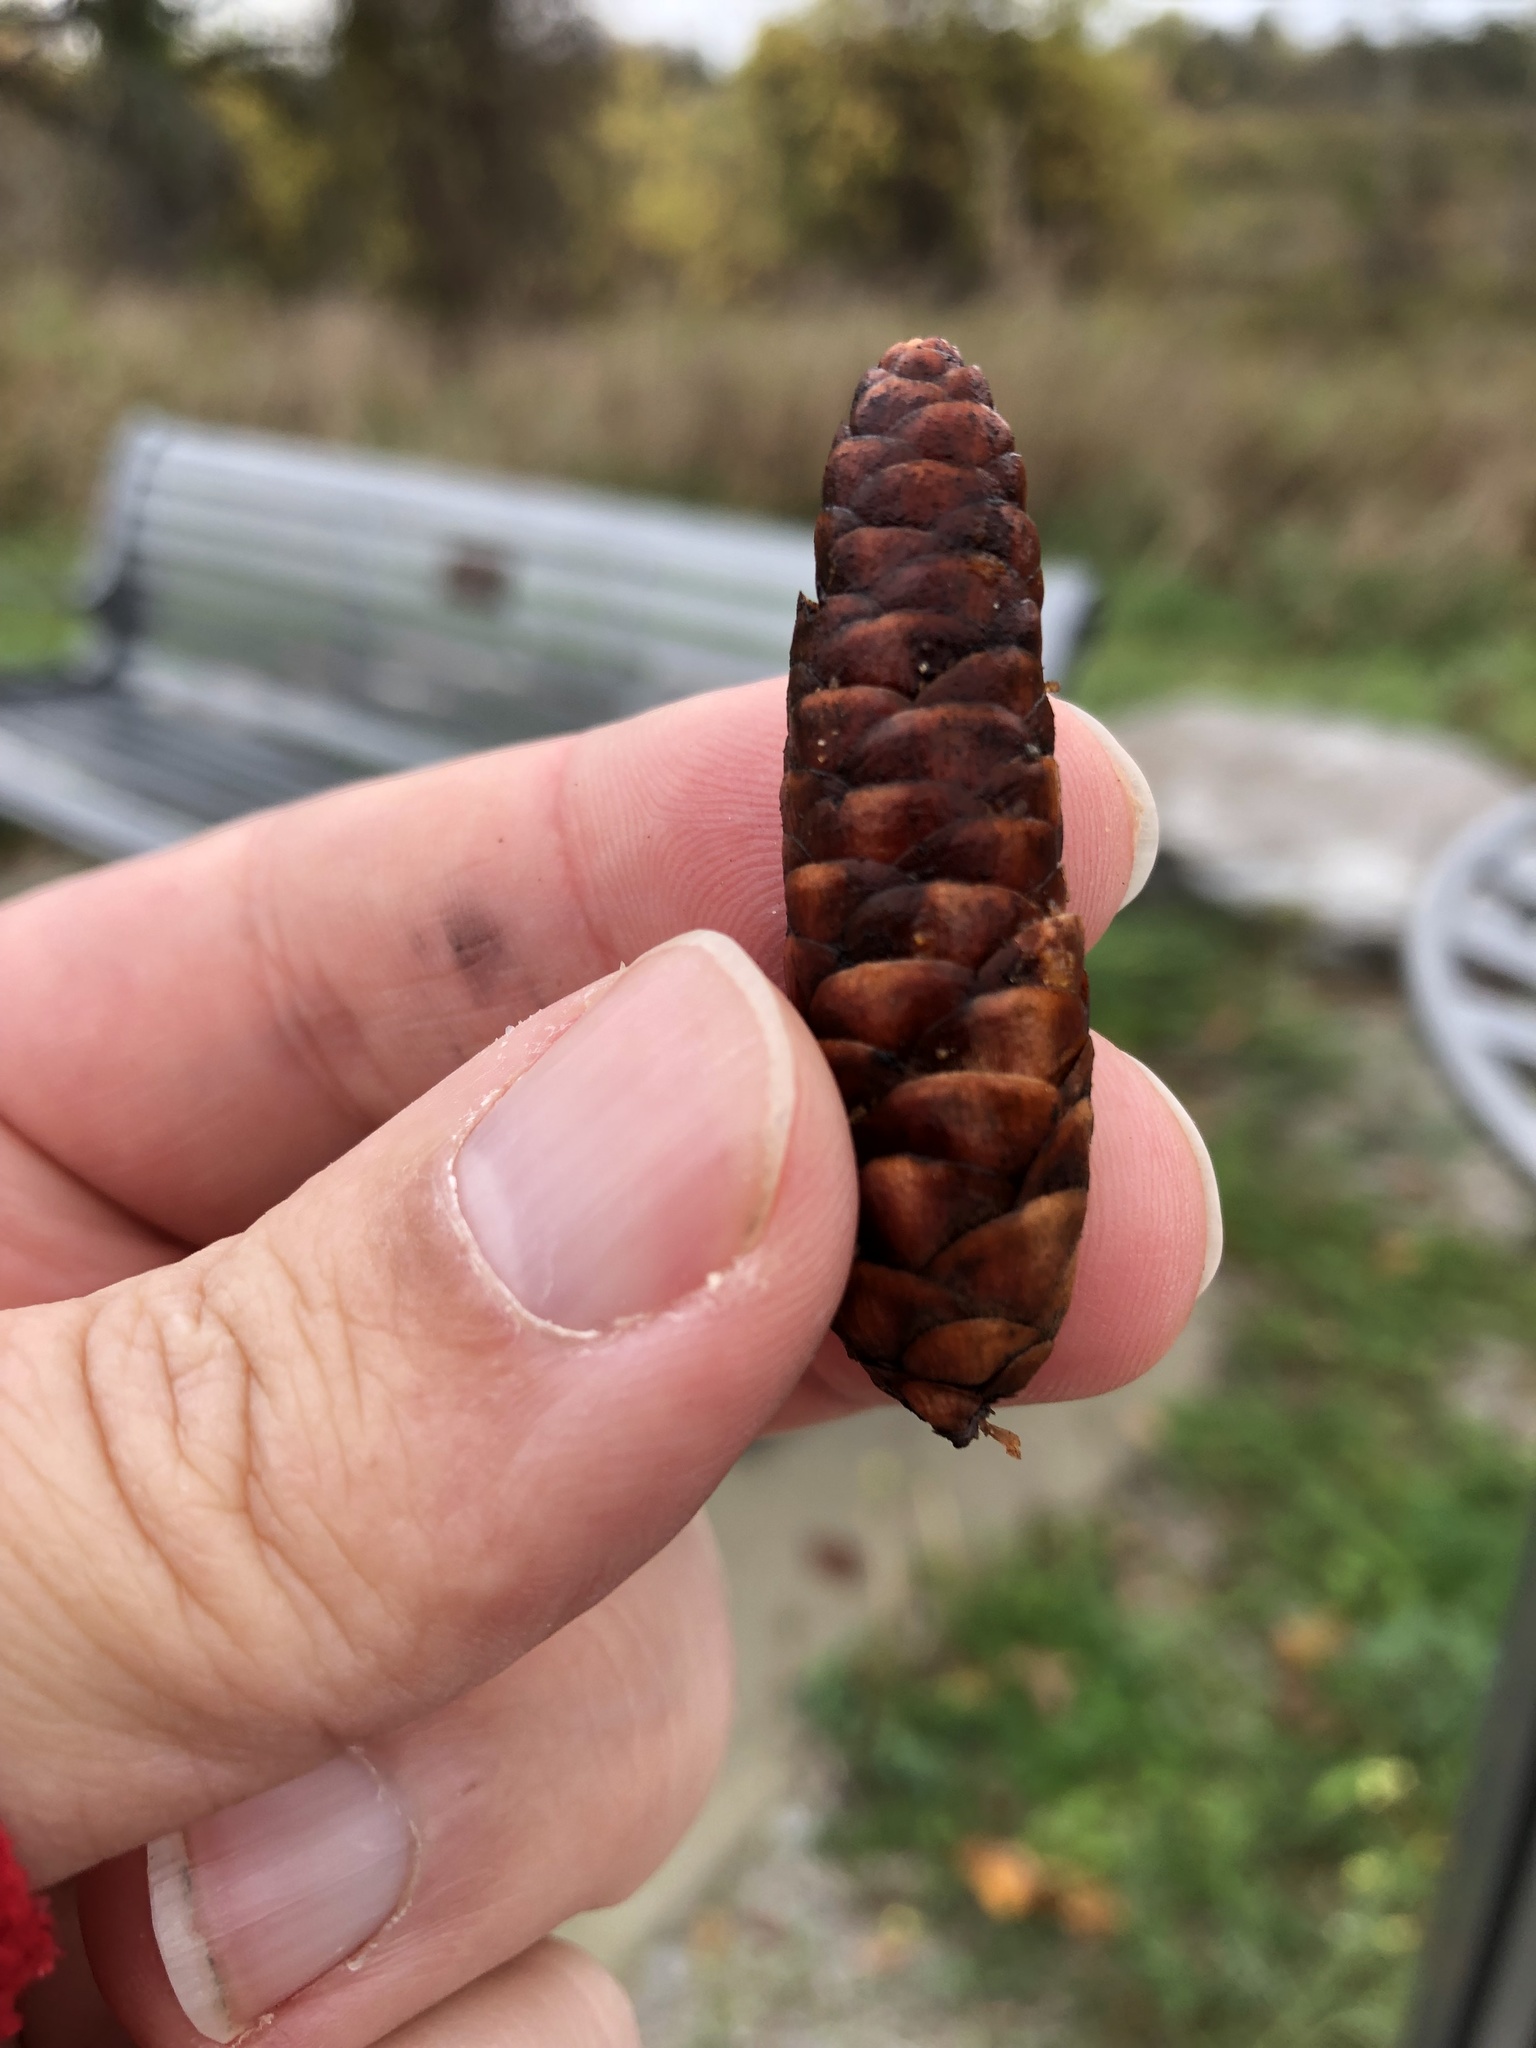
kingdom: Plantae
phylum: Tracheophyta
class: Pinopsida
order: Pinales
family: Pinaceae
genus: Picea
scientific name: Picea glauca
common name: White spruce
